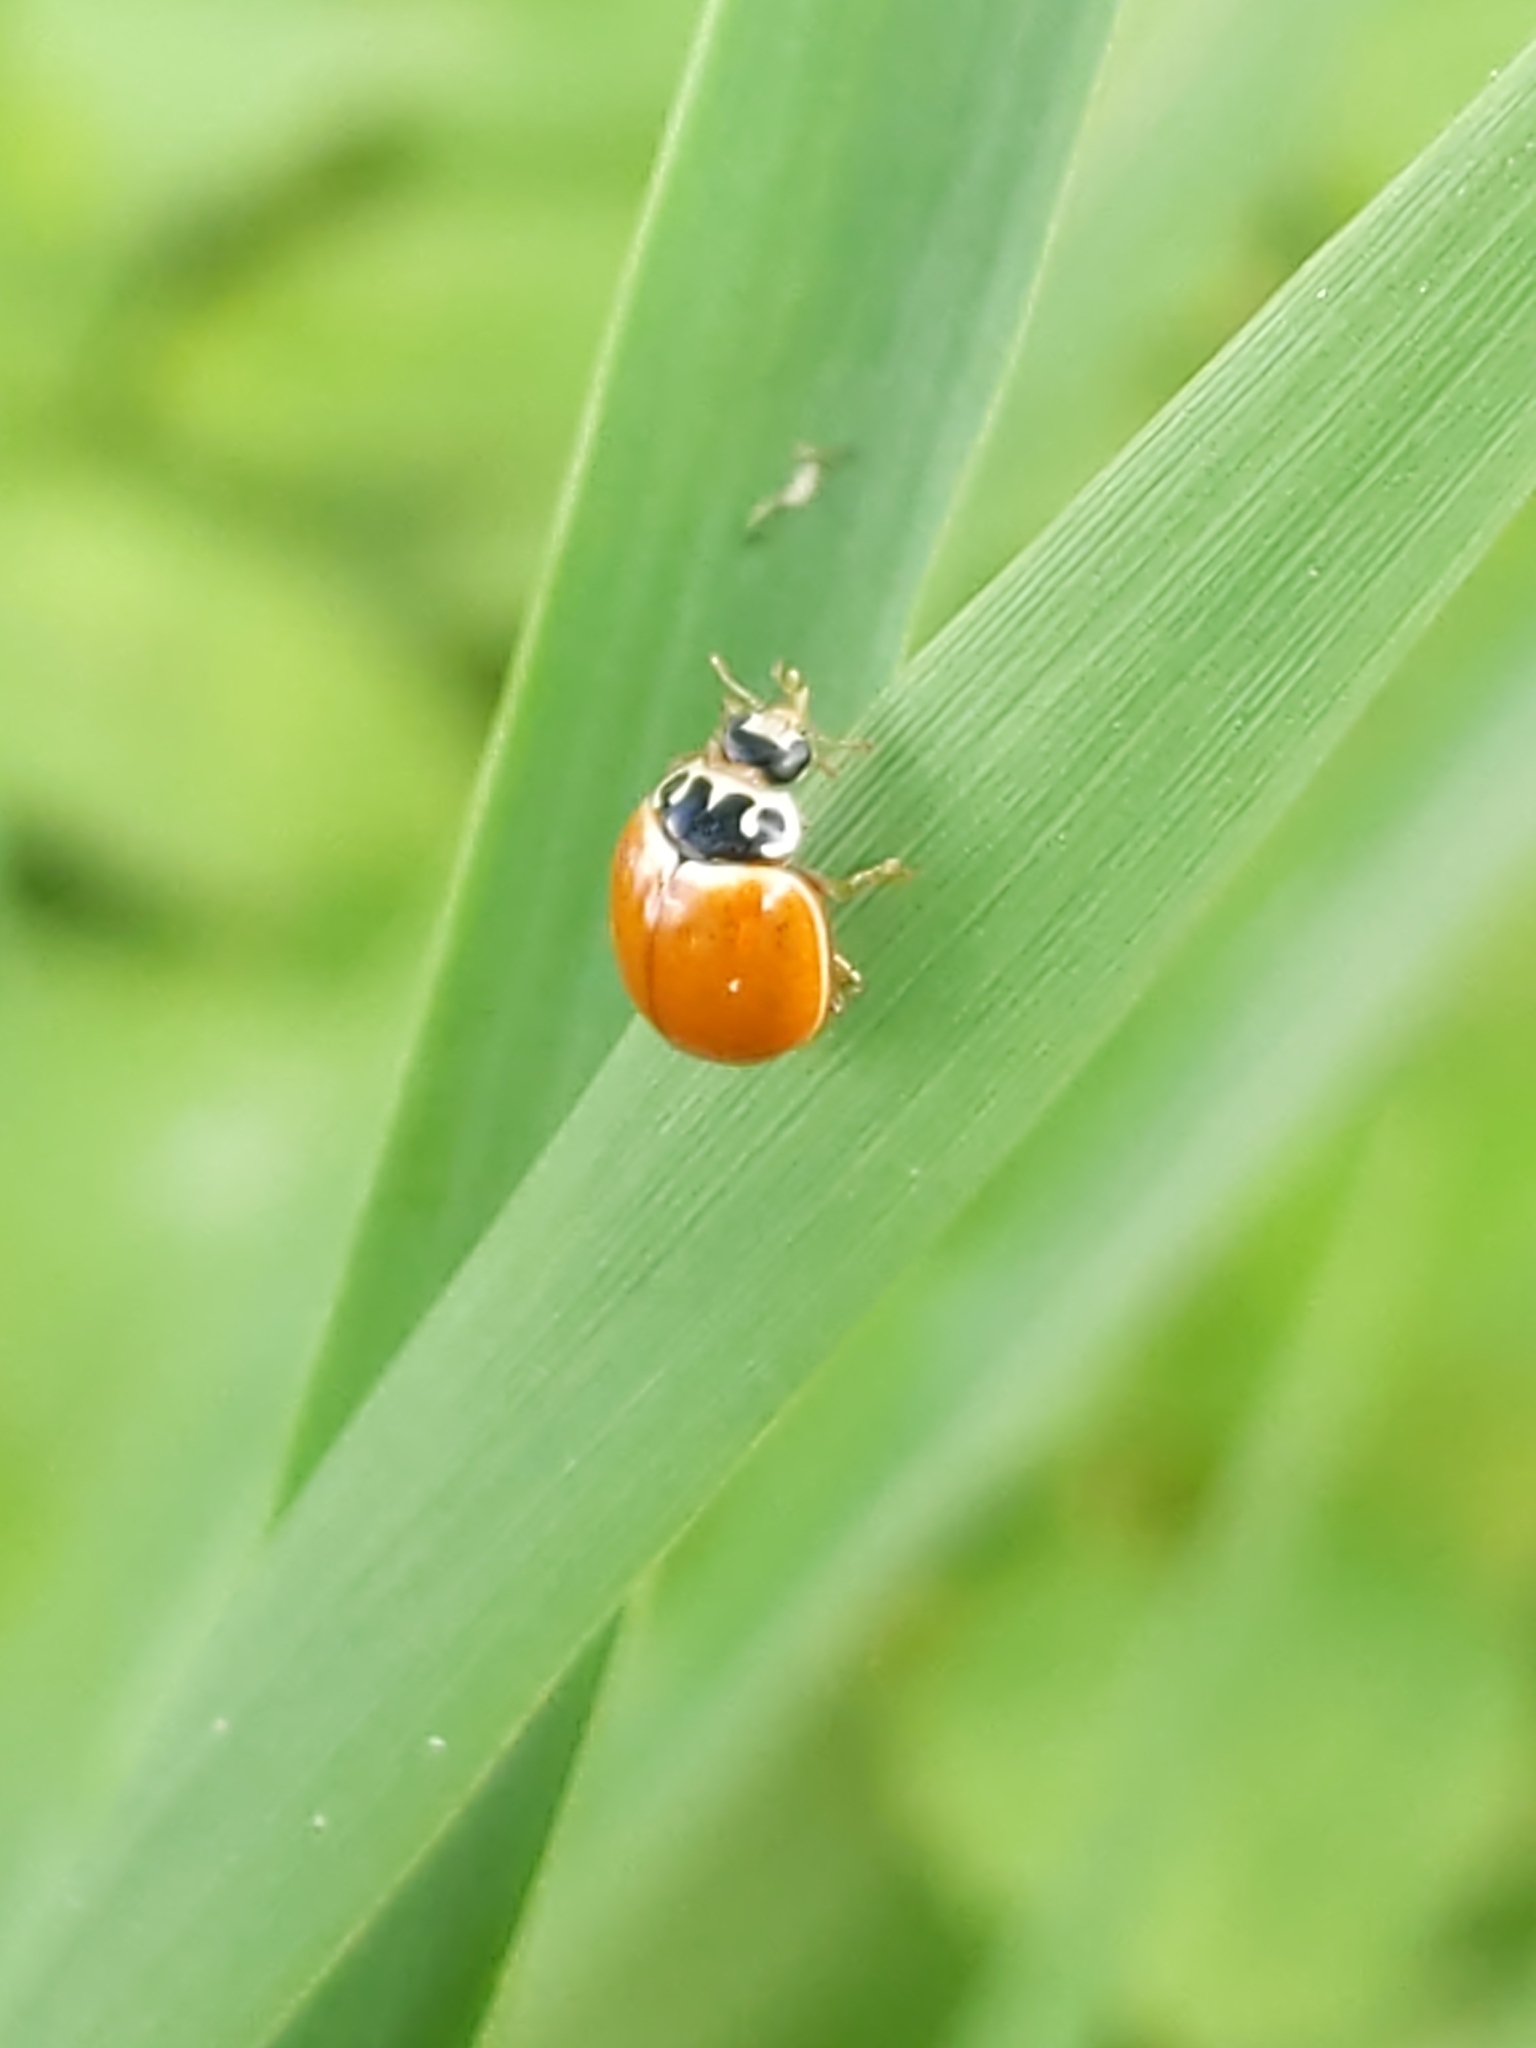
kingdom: Animalia
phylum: Arthropoda
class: Insecta
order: Coleoptera
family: Coccinellidae
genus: Cycloneda
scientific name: Cycloneda munda
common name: Polished lady beetle
